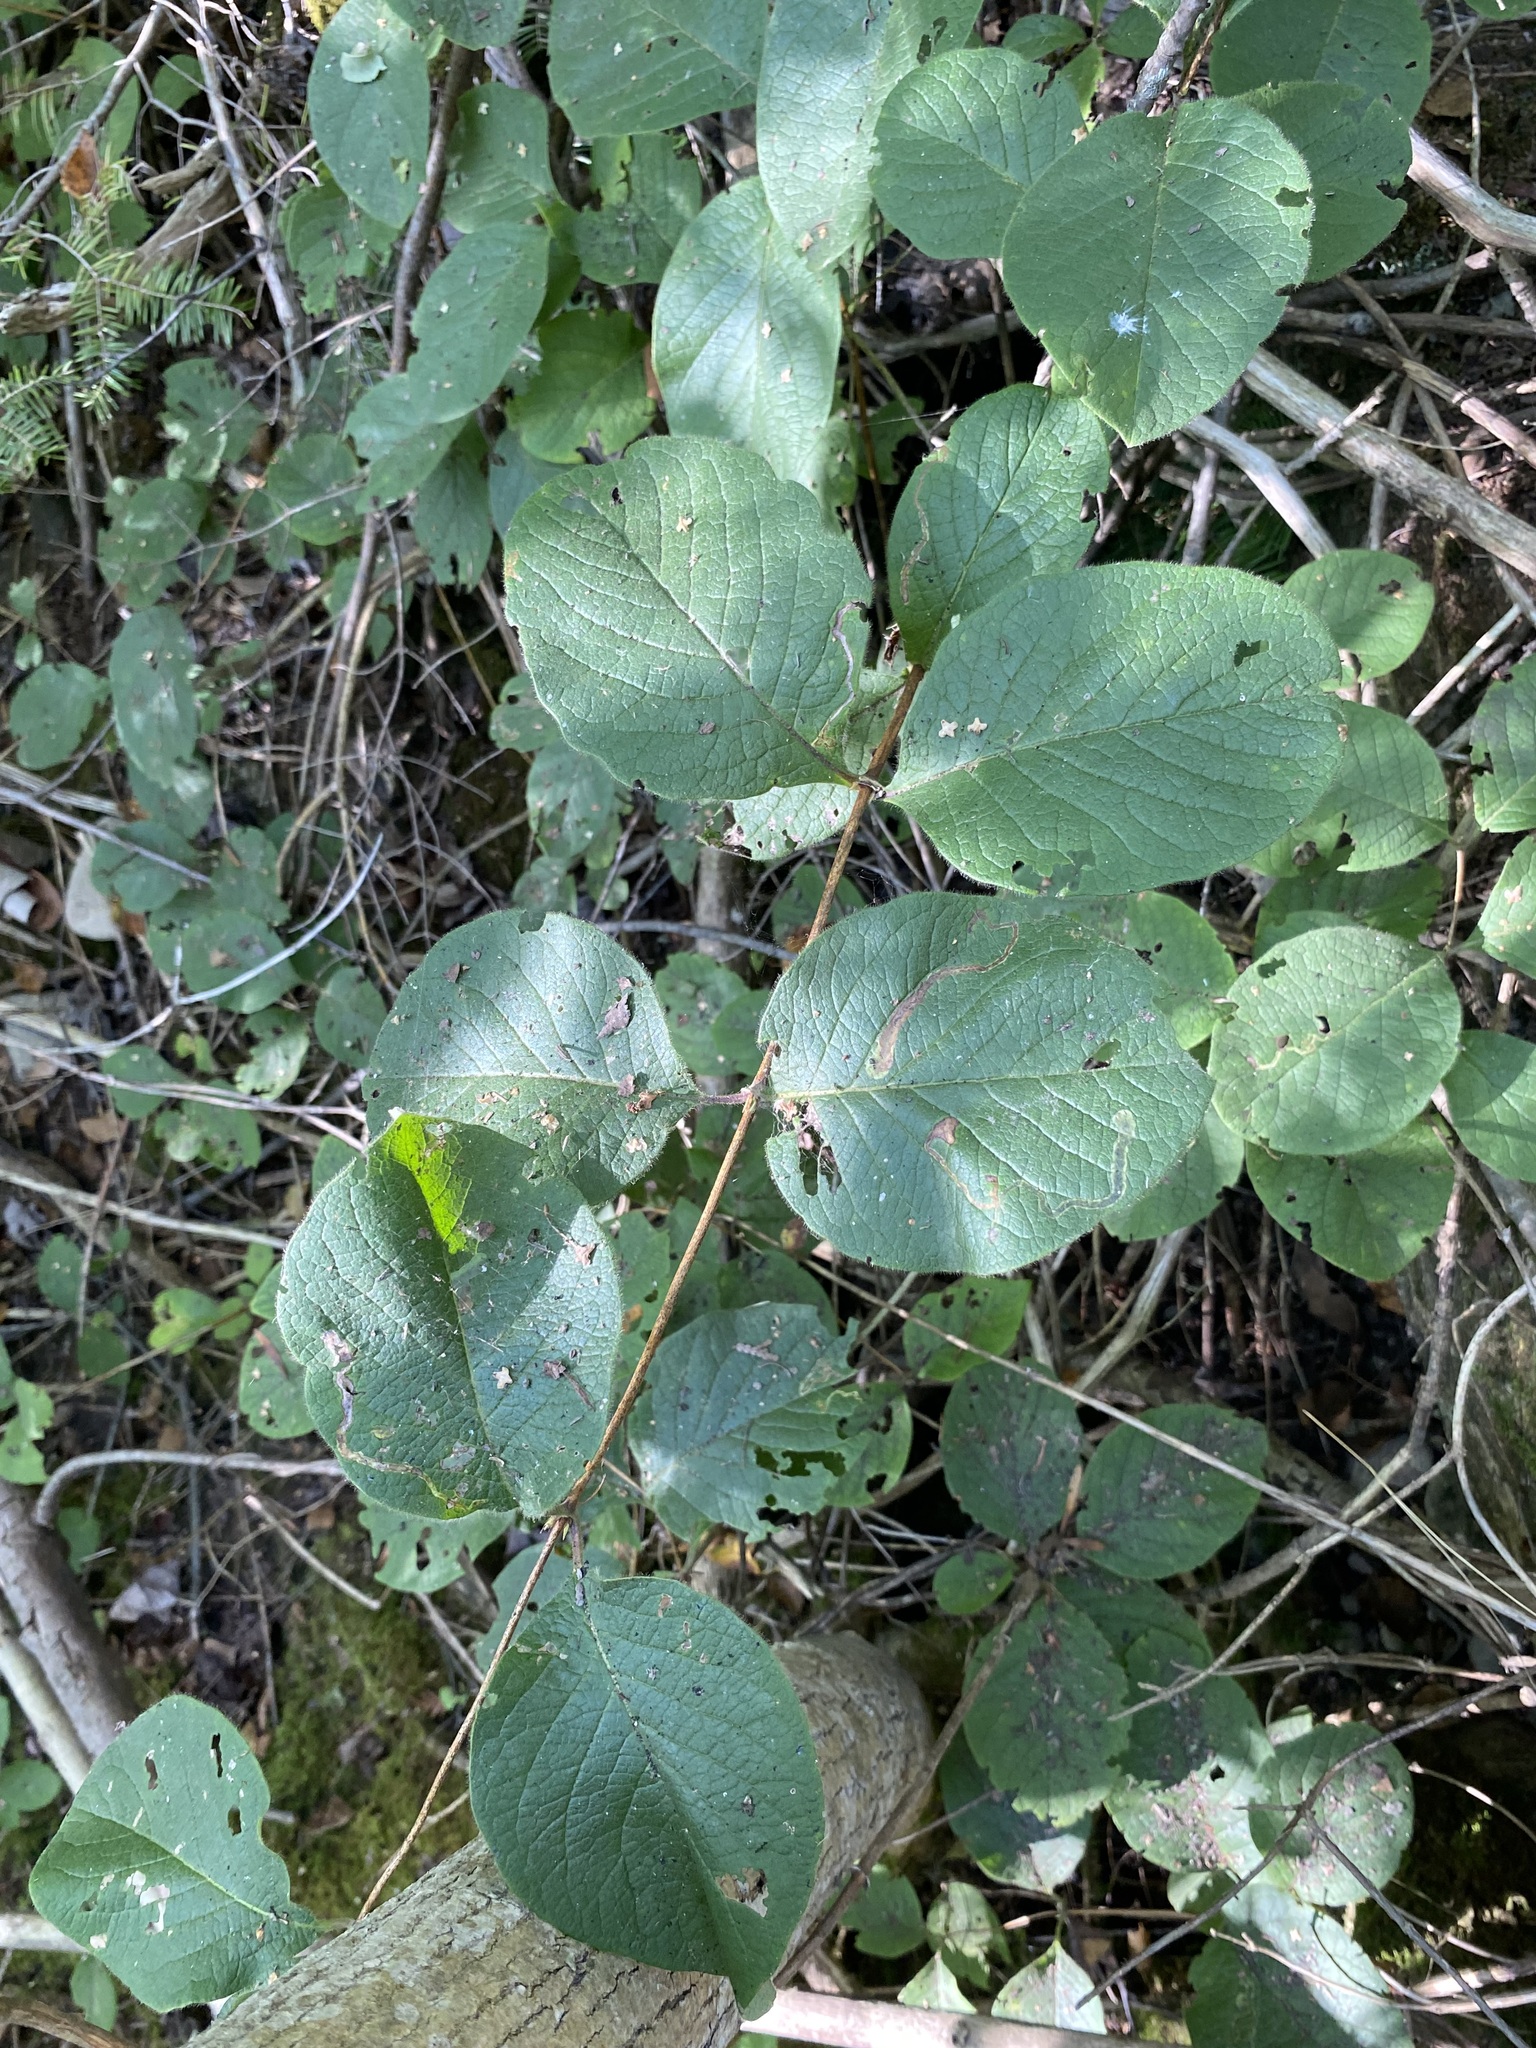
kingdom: Plantae
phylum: Tracheophyta
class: Magnoliopsida
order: Dipsacales
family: Caprifoliaceae
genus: Lonicera
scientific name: Lonicera hirsuta
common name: Hairy honeysuckle
